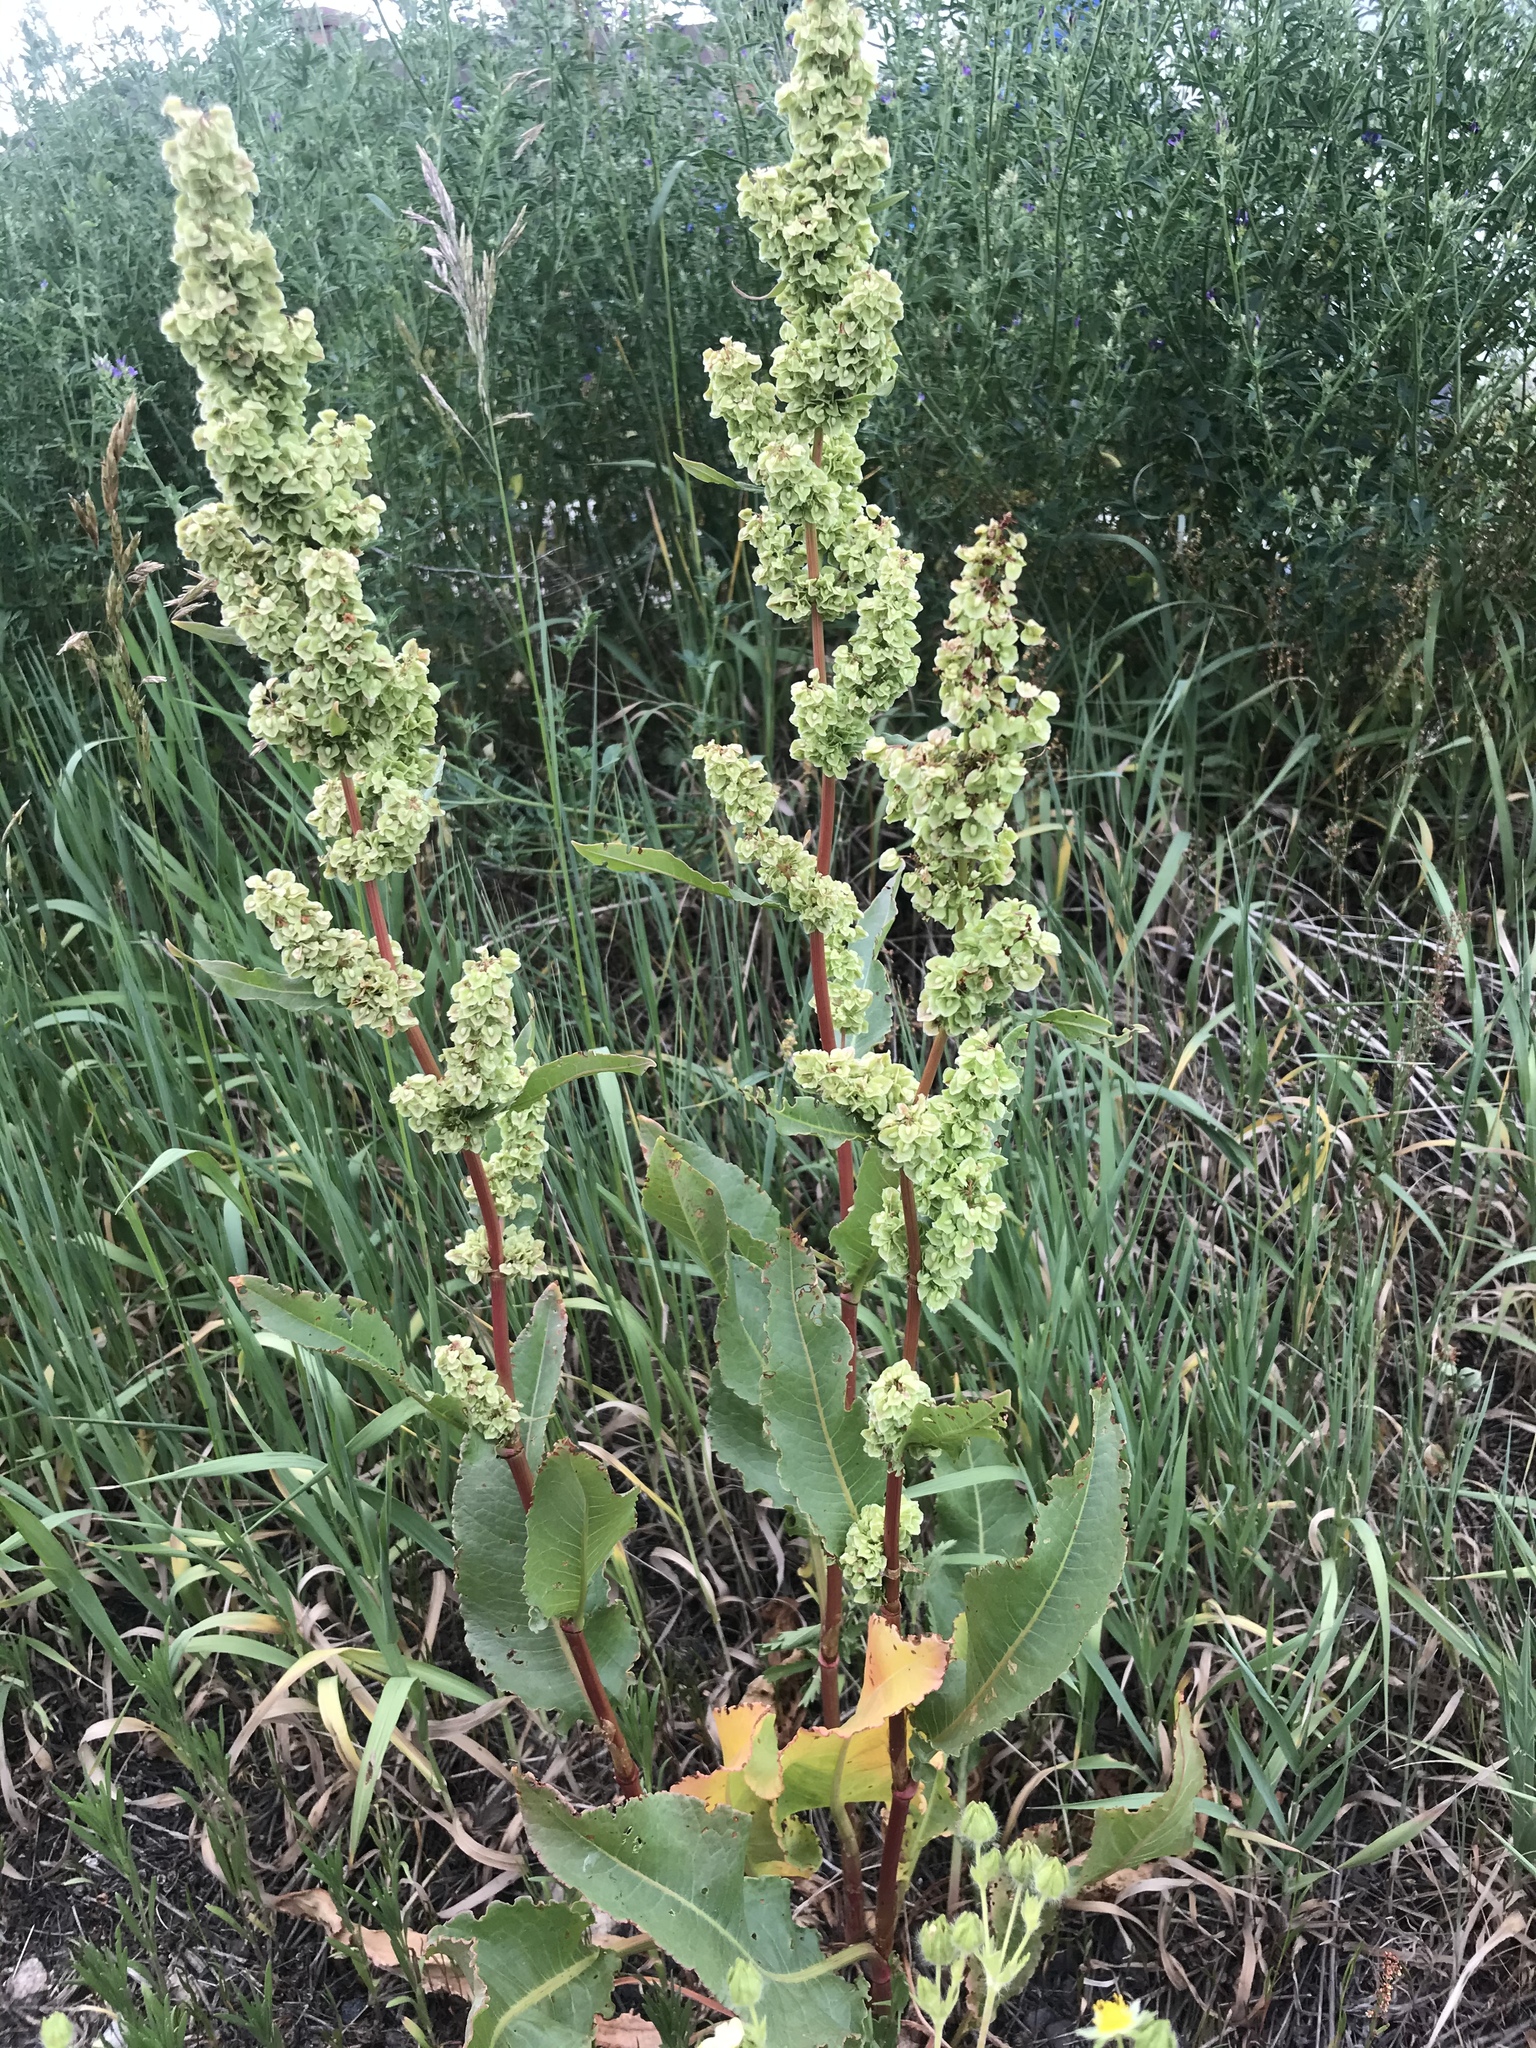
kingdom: Plantae
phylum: Tracheophyta
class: Magnoliopsida
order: Caryophyllales
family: Polygonaceae
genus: Rumex
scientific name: Rumex crispus
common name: Curled dock
